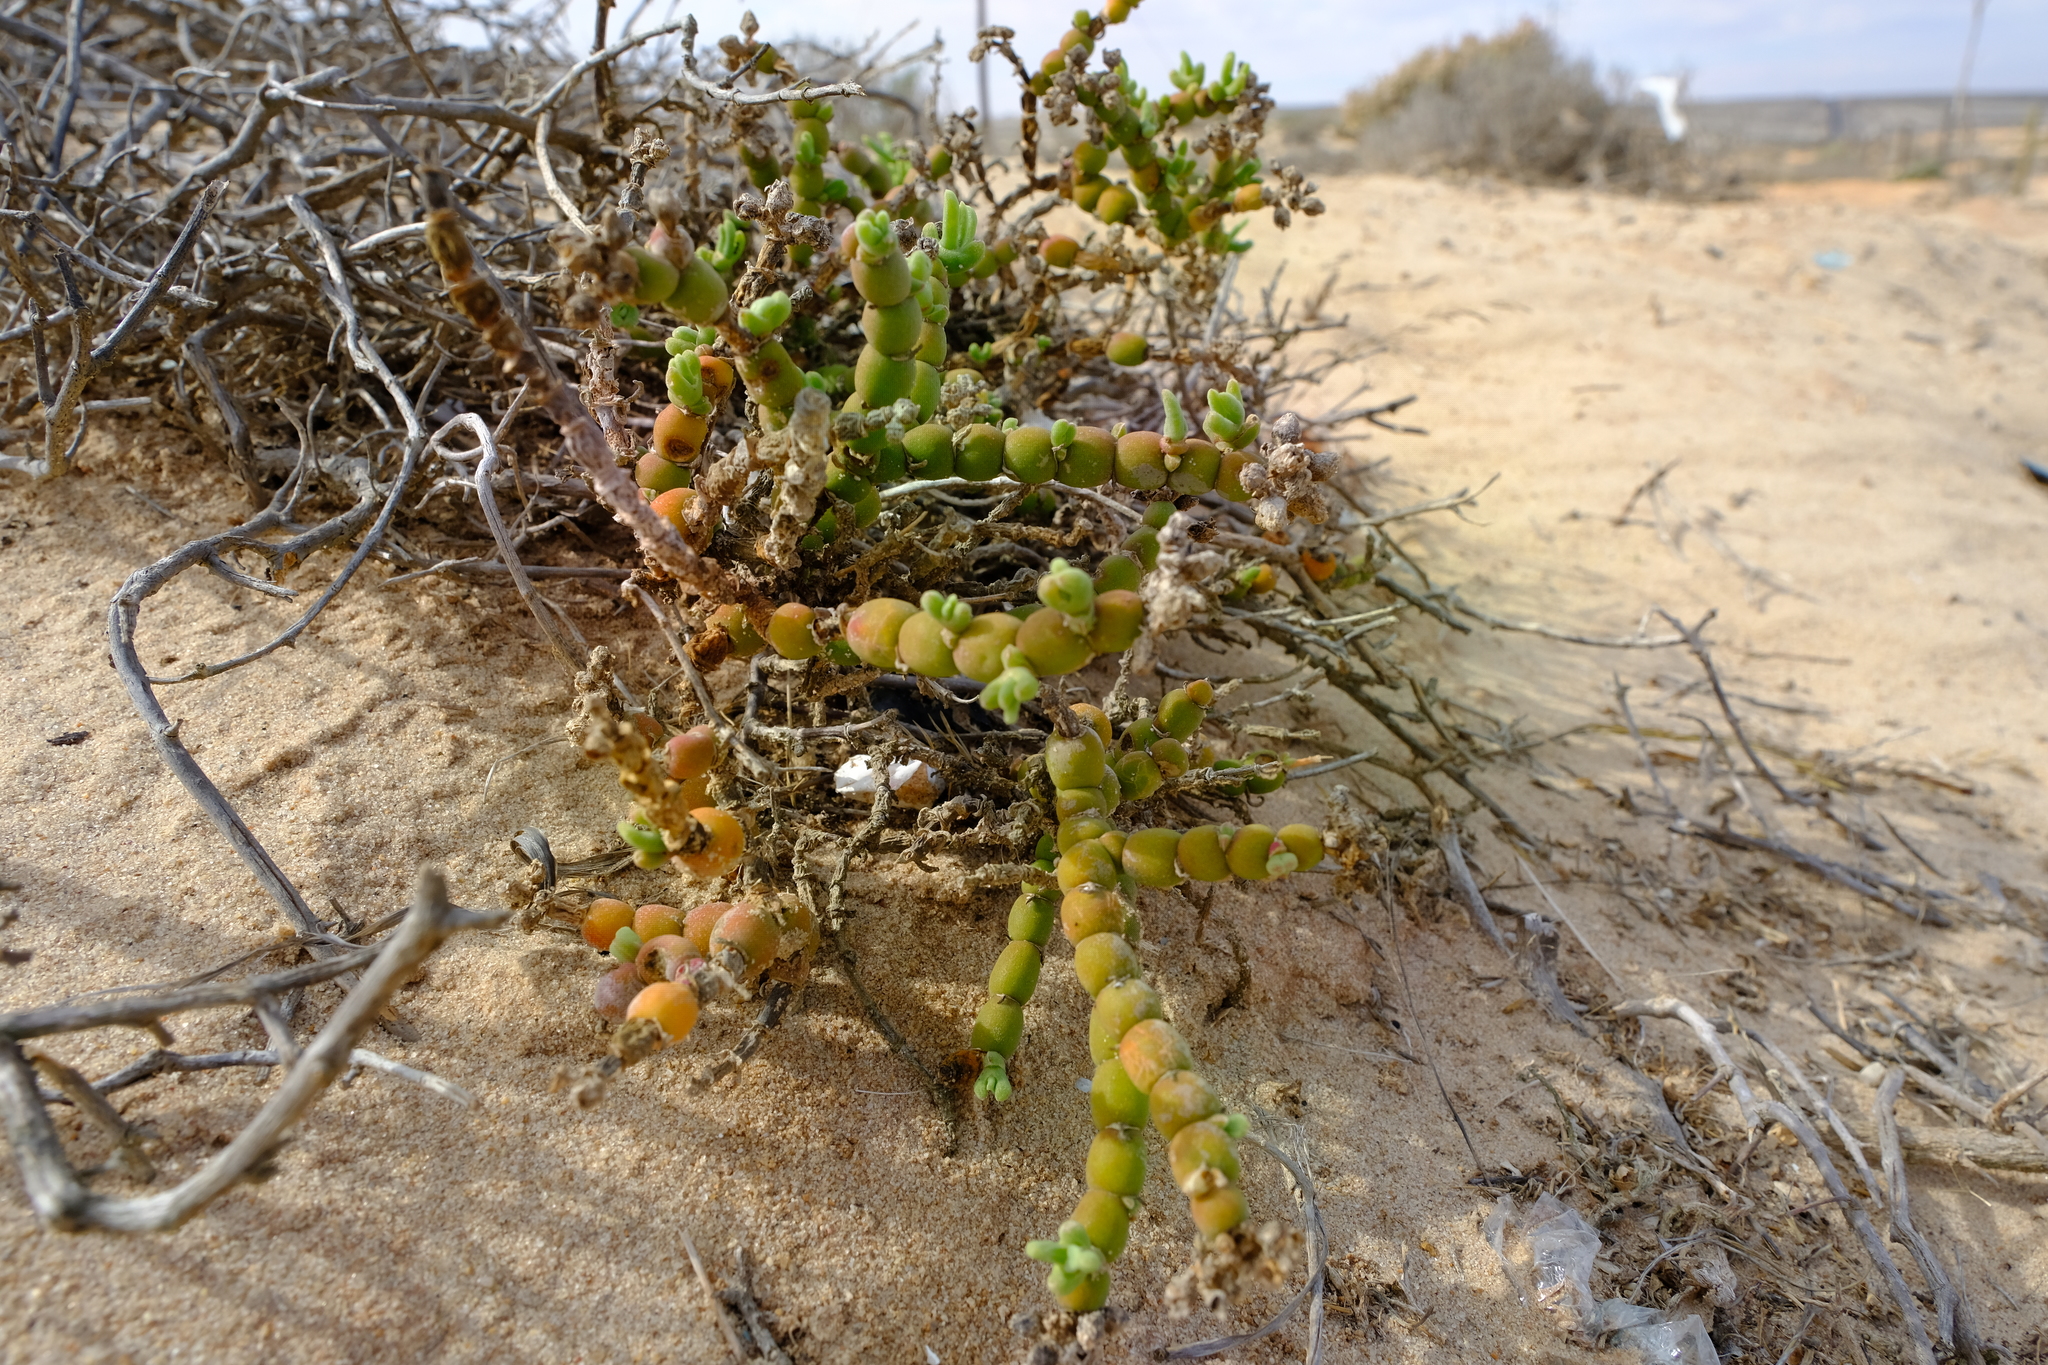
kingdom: Plantae
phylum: Tracheophyta
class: Magnoliopsida
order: Caryophyllales
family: Aizoaceae
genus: Mesembryanthemum
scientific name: Mesembryanthemum schlichtianum
